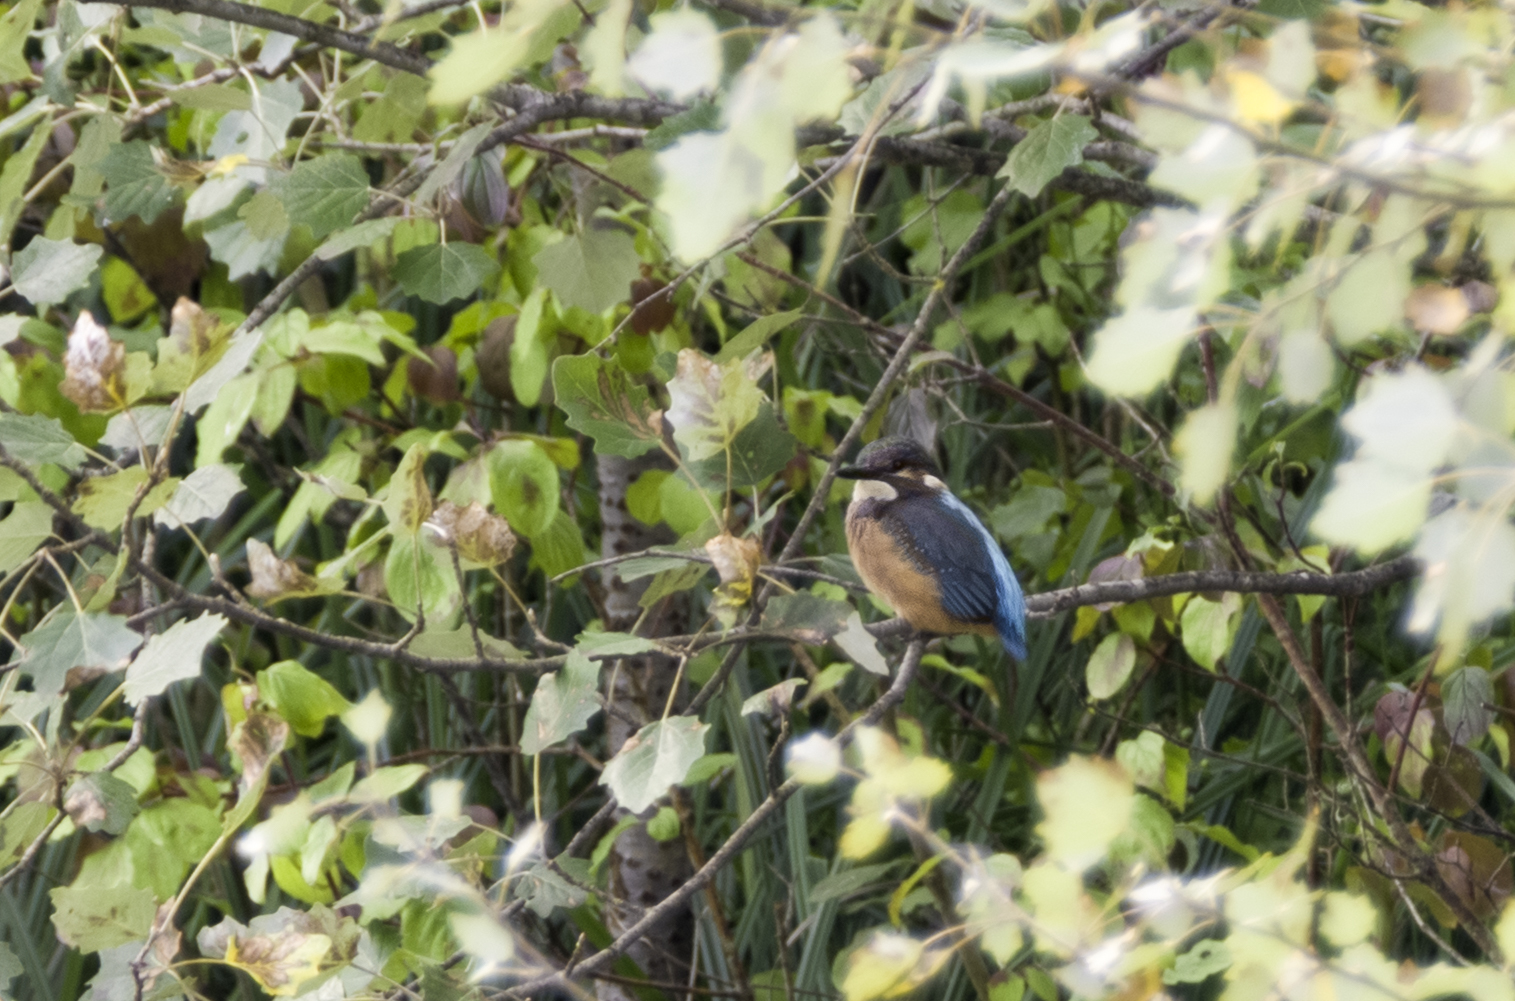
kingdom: Animalia
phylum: Chordata
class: Aves
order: Coraciiformes
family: Alcedinidae
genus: Alcedo
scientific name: Alcedo atthis
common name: Common kingfisher
